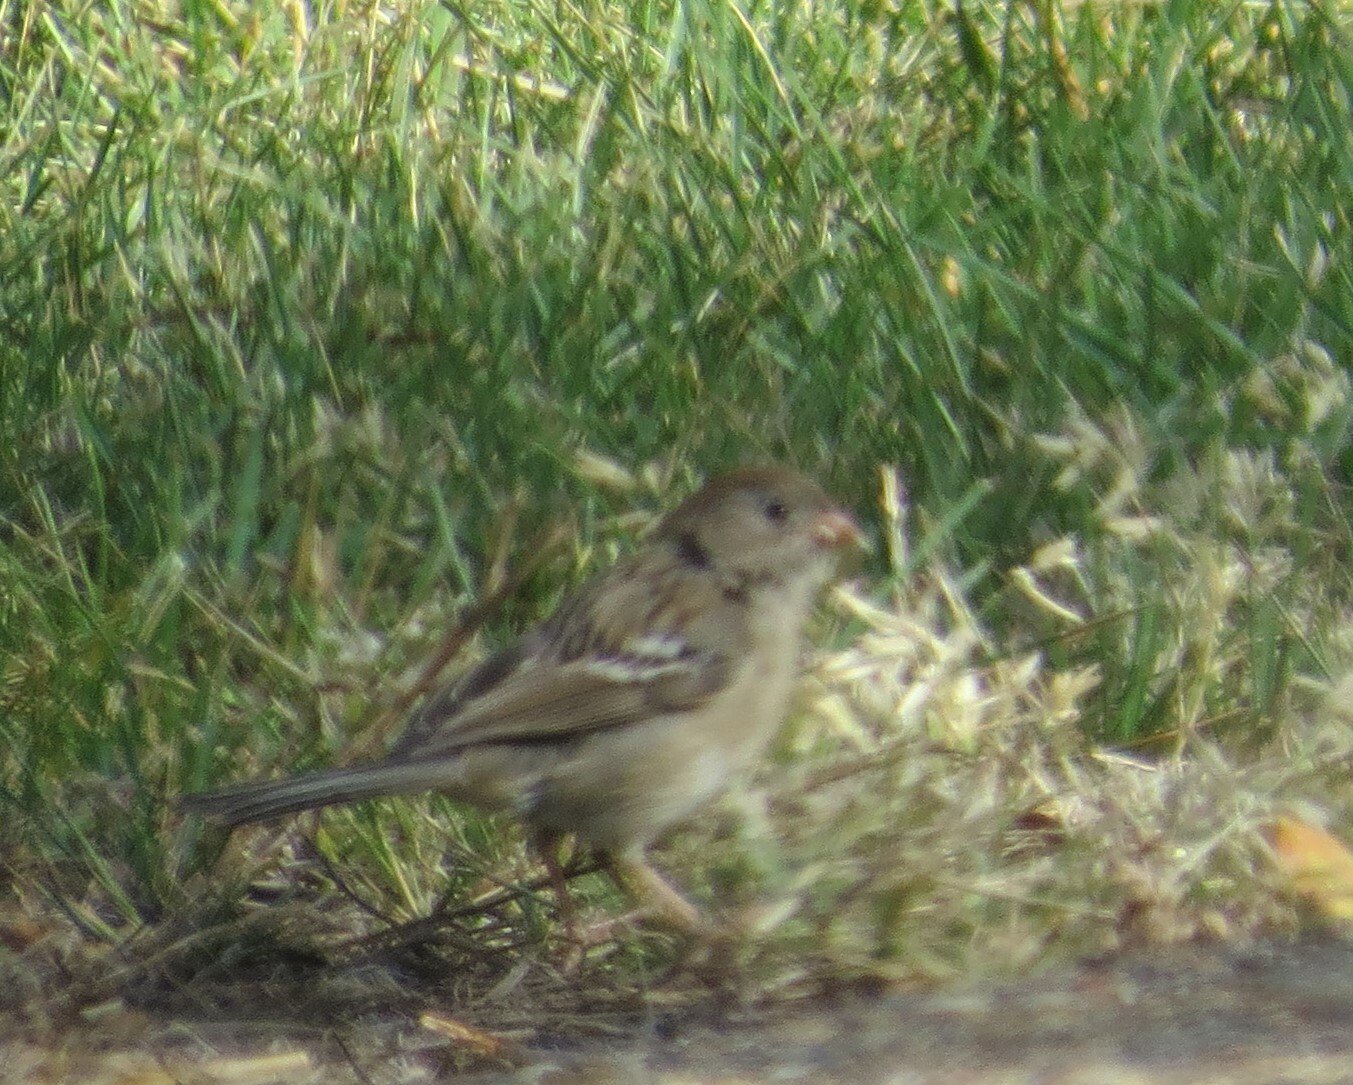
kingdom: Animalia
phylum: Chordata
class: Aves
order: Passeriformes
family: Passerellidae
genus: Spizella
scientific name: Spizella pusilla
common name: Field sparrow
